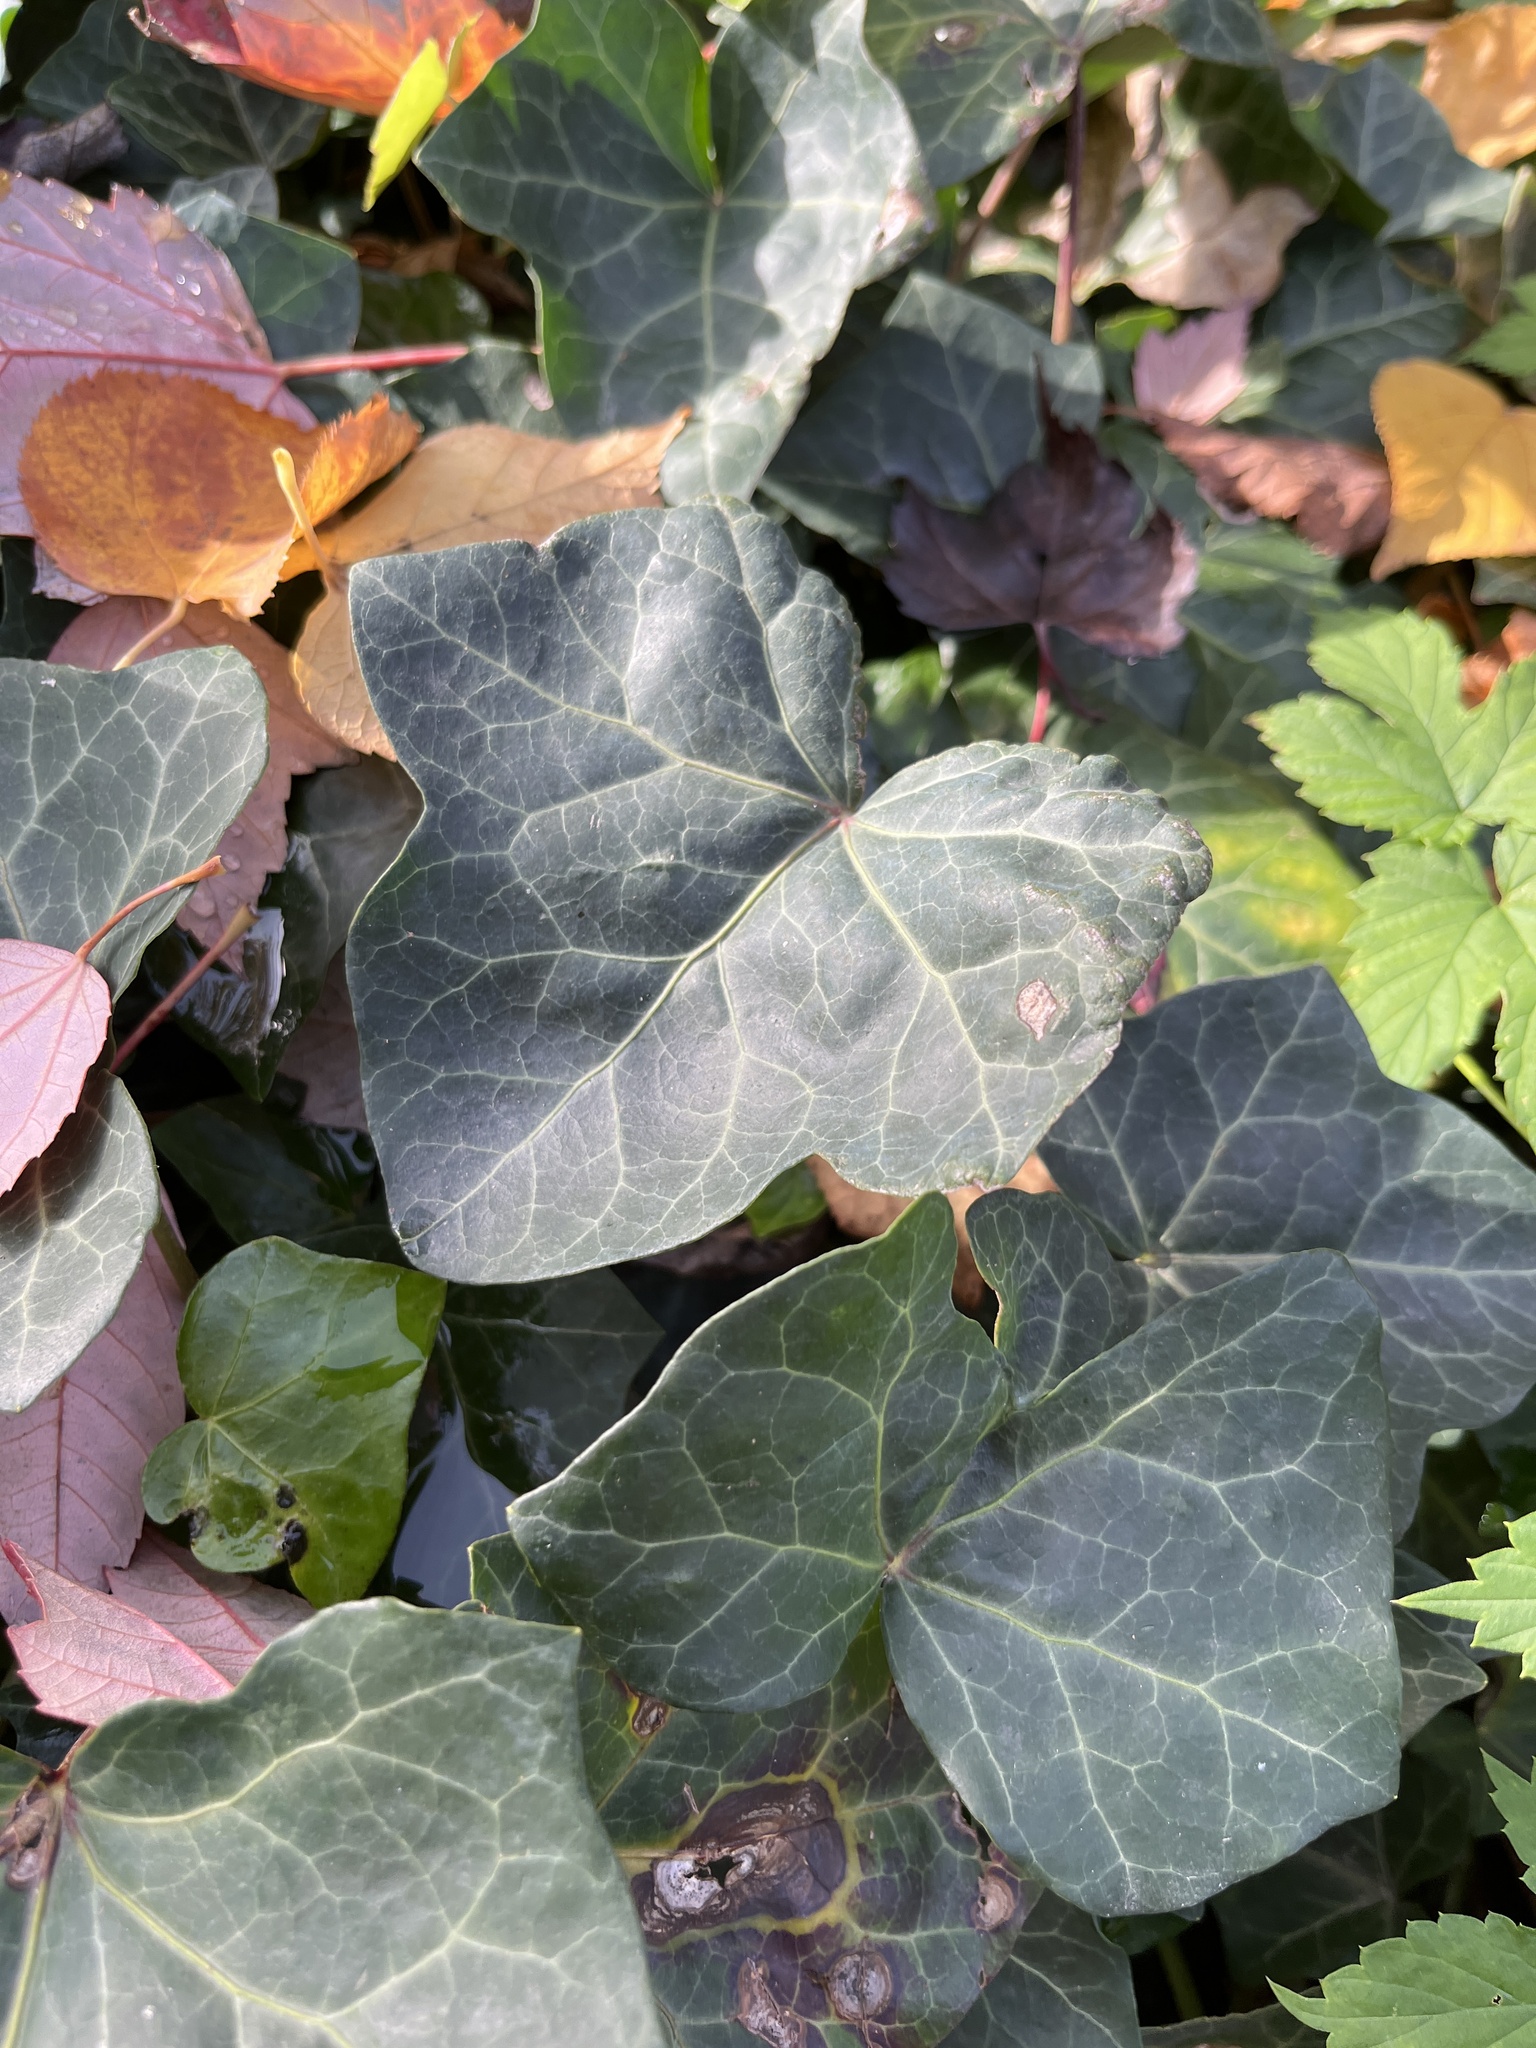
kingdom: Plantae
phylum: Tracheophyta
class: Magnoliopsida
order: Apiales
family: Araliaceae
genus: Hedera
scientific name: Hedera helix
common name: Ivy
